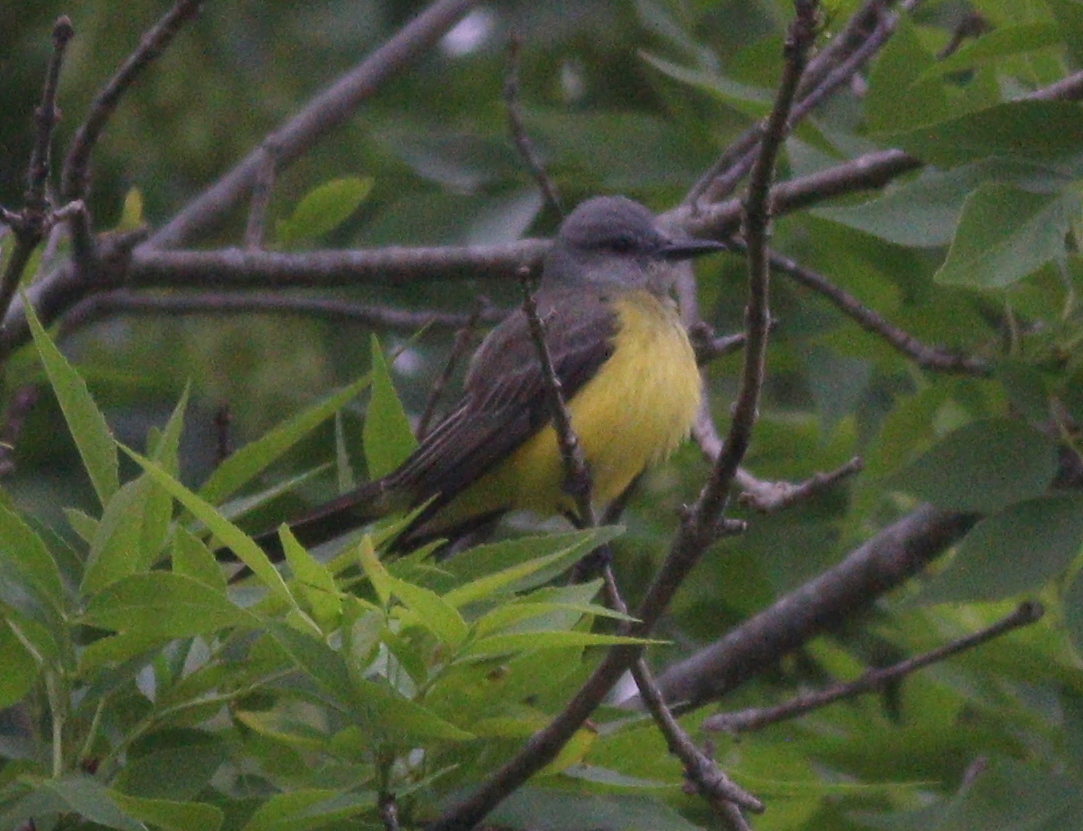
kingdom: Animalia
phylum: Chordata
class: Aves
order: Passeriformes
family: Tyrannidae
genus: Tyrannus
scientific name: Tyrannus melancholicus
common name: Tropical kingbird
